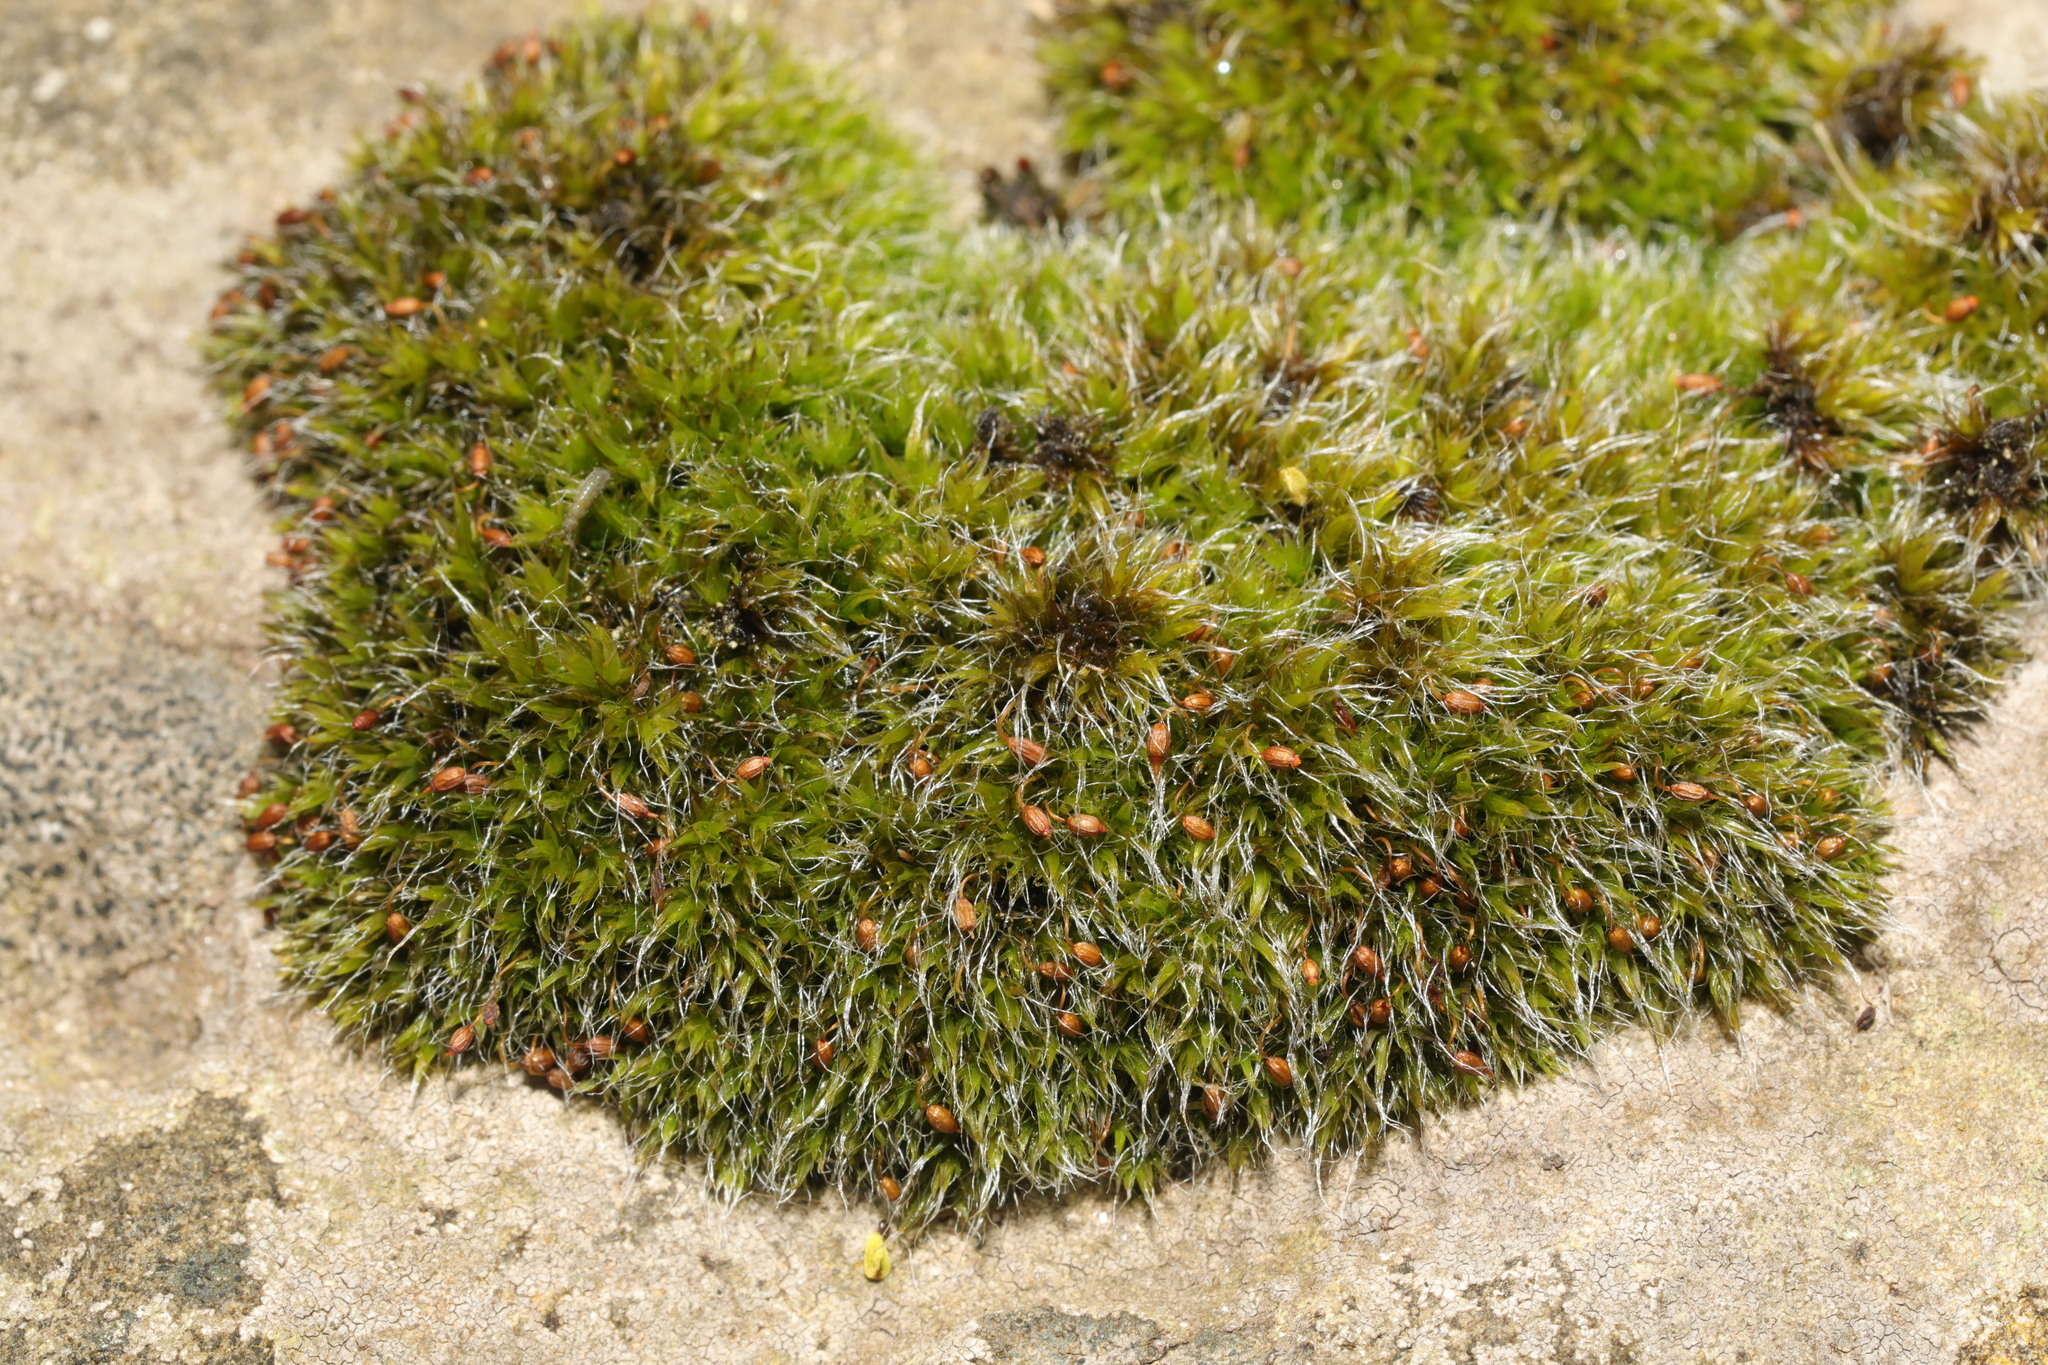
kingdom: Plantae
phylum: Bryophyta
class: Bryopsida
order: Grimmiales
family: Grimmiaceae
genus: Grimmia
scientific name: Grimmia pulvinata
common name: Grey-cushioned grimmia
